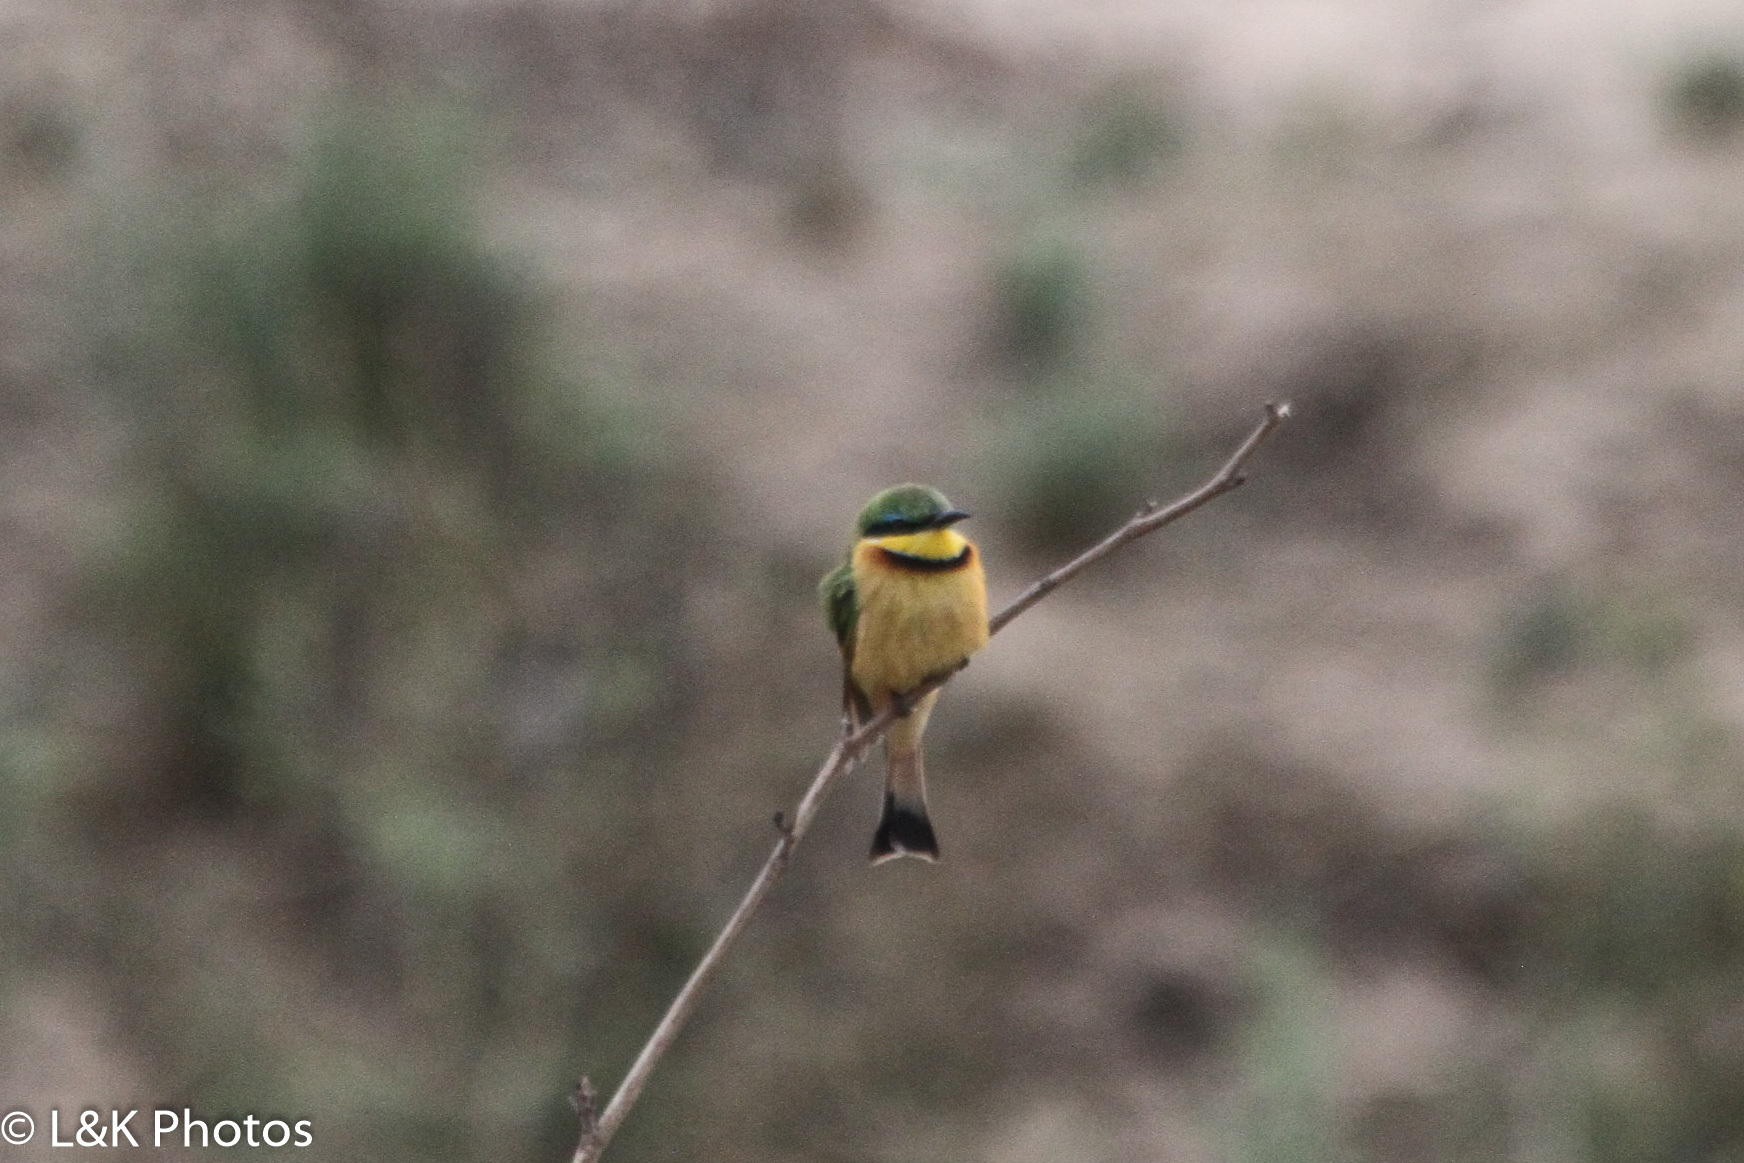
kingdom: Animalia
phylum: Chordata
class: Aves
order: Coraciiformes
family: Meropidae
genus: Merops
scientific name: Merops pusillus
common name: Little bee-eater
